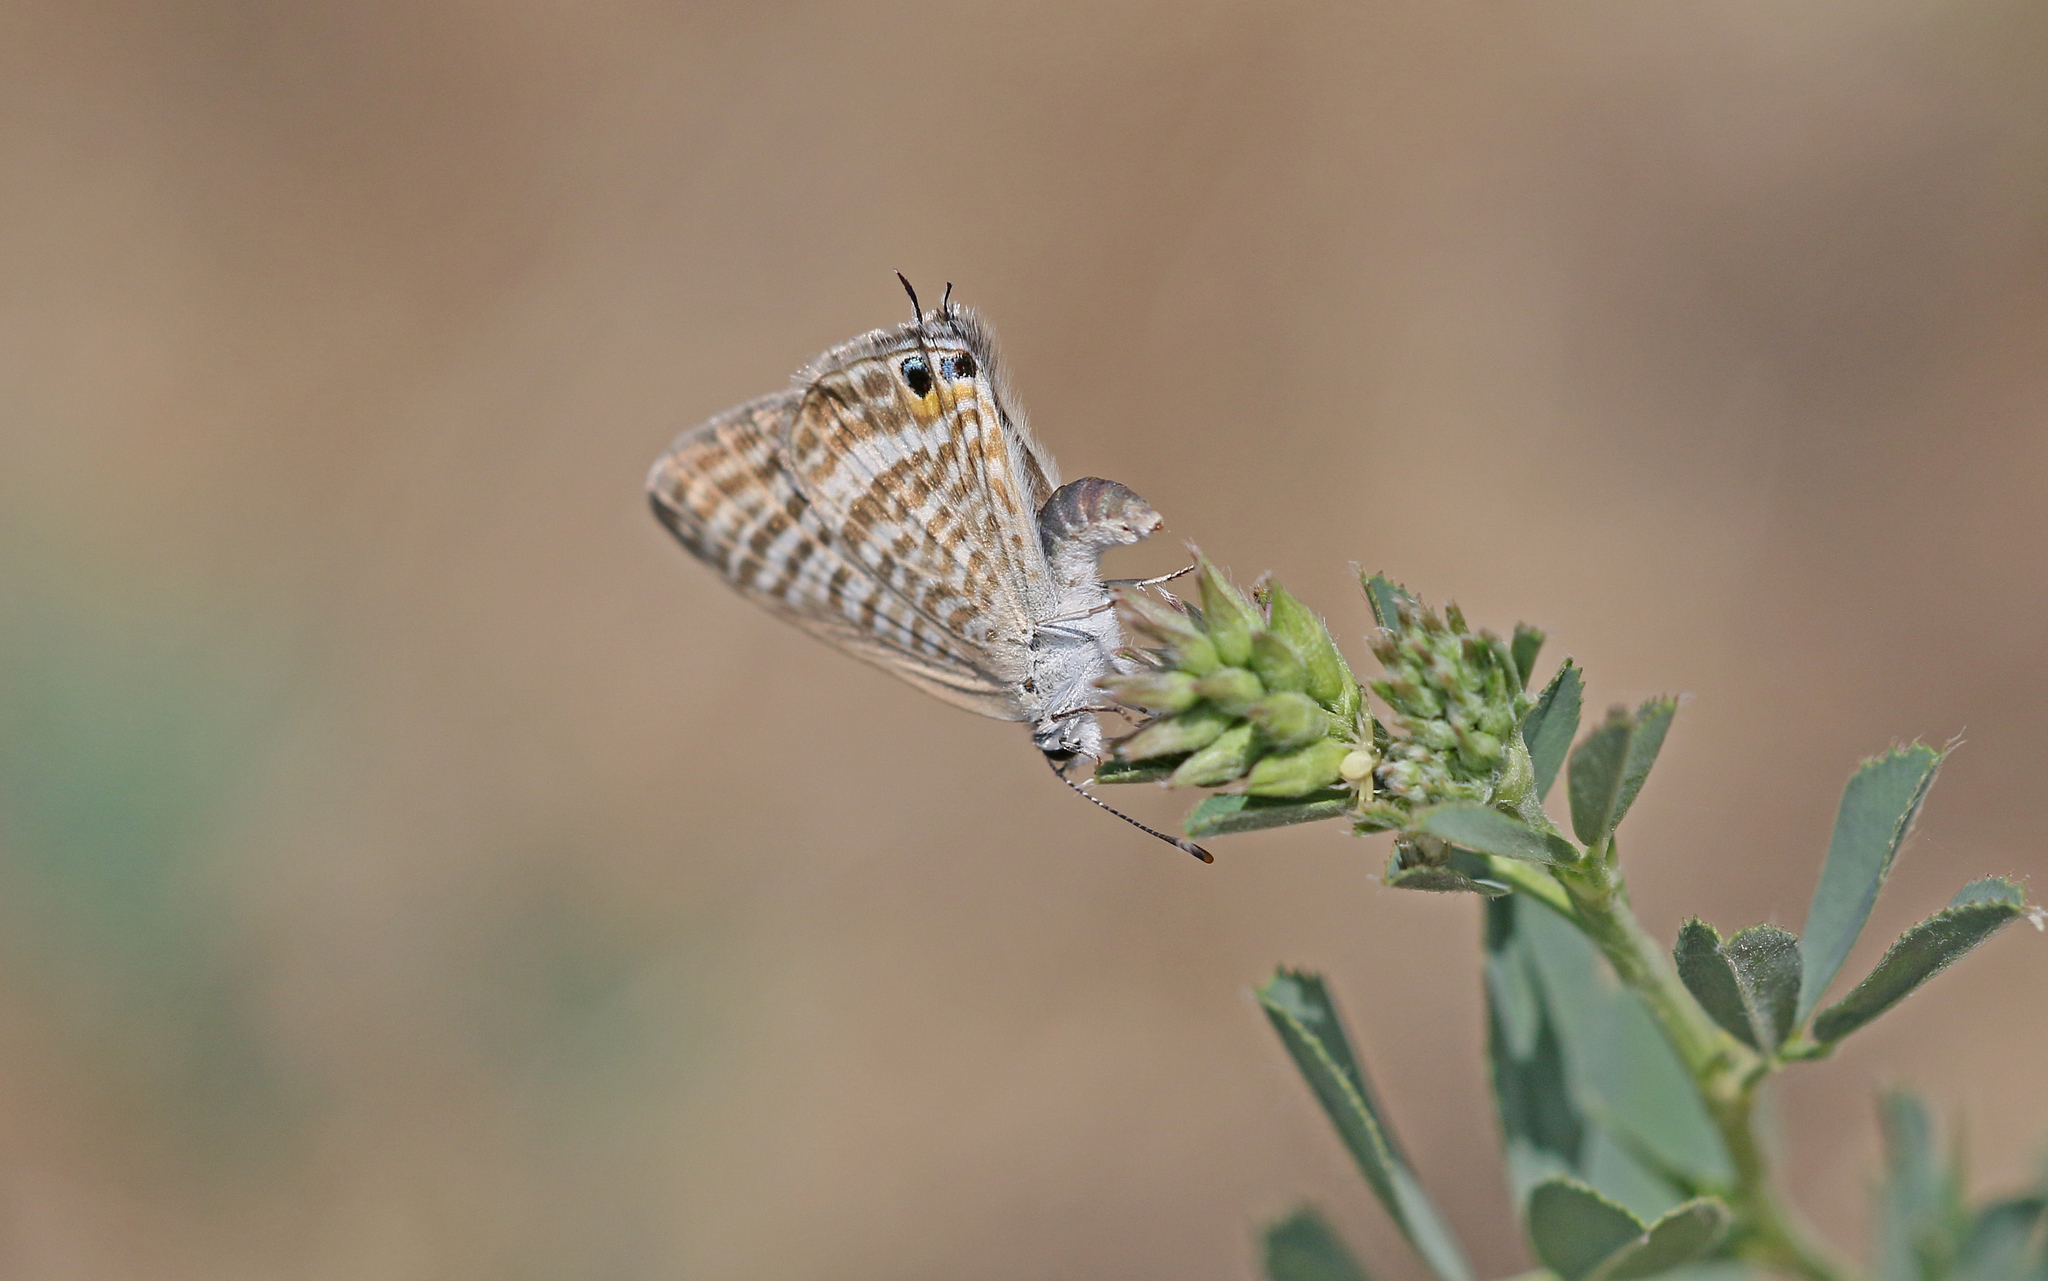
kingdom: Animalia
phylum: Arthropoda
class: Insecta
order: Lepidoptera
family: Lycaenidae
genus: Lampides
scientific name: Lampides boeticus
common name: Long-tailed blue
